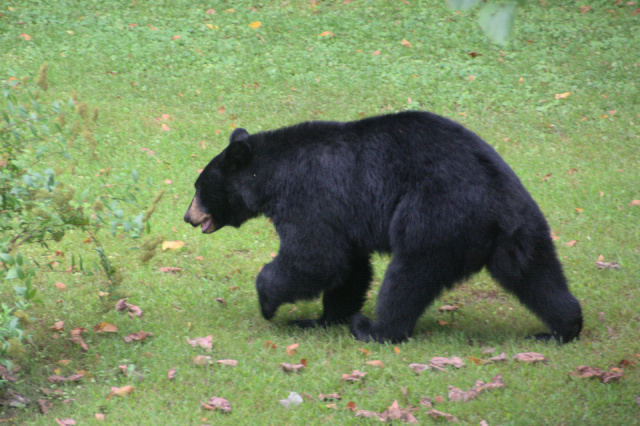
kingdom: Animalia
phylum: Chordata
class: Mammalia
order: Carnivora
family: Ursidae
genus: Ursus
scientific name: Ursus americanus
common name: American black bear
